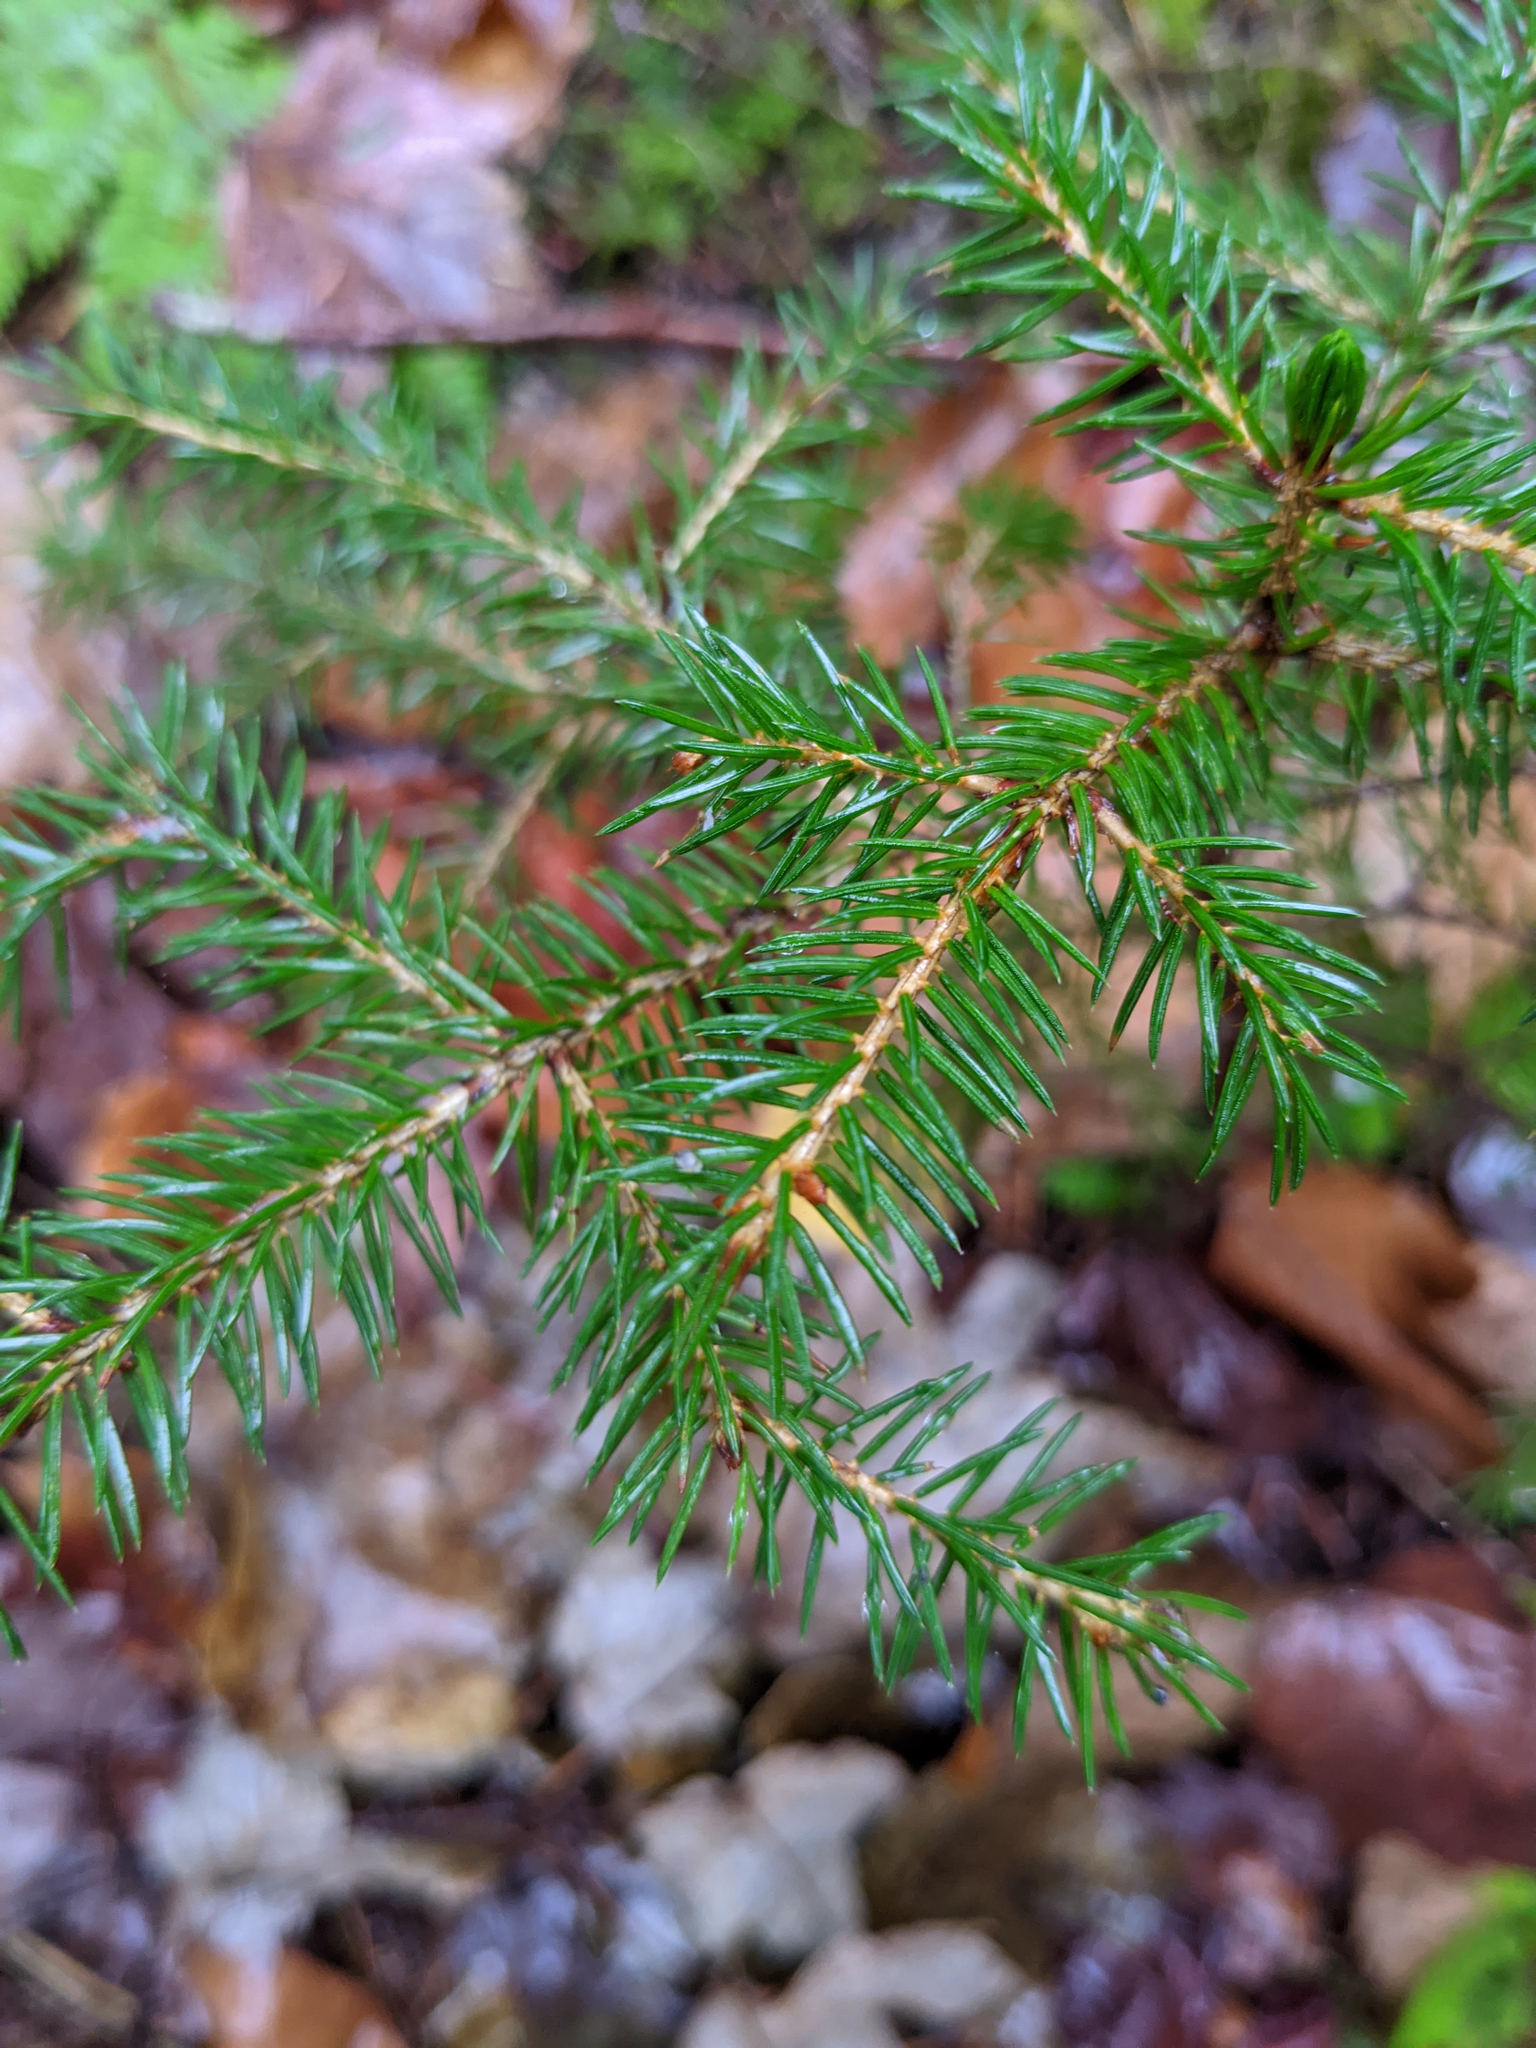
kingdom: Plantae
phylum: Tracheophyta
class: Pinopsida
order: Pinales
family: Pinaceae
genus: Picea
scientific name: Picea rubens
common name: Red spruce
